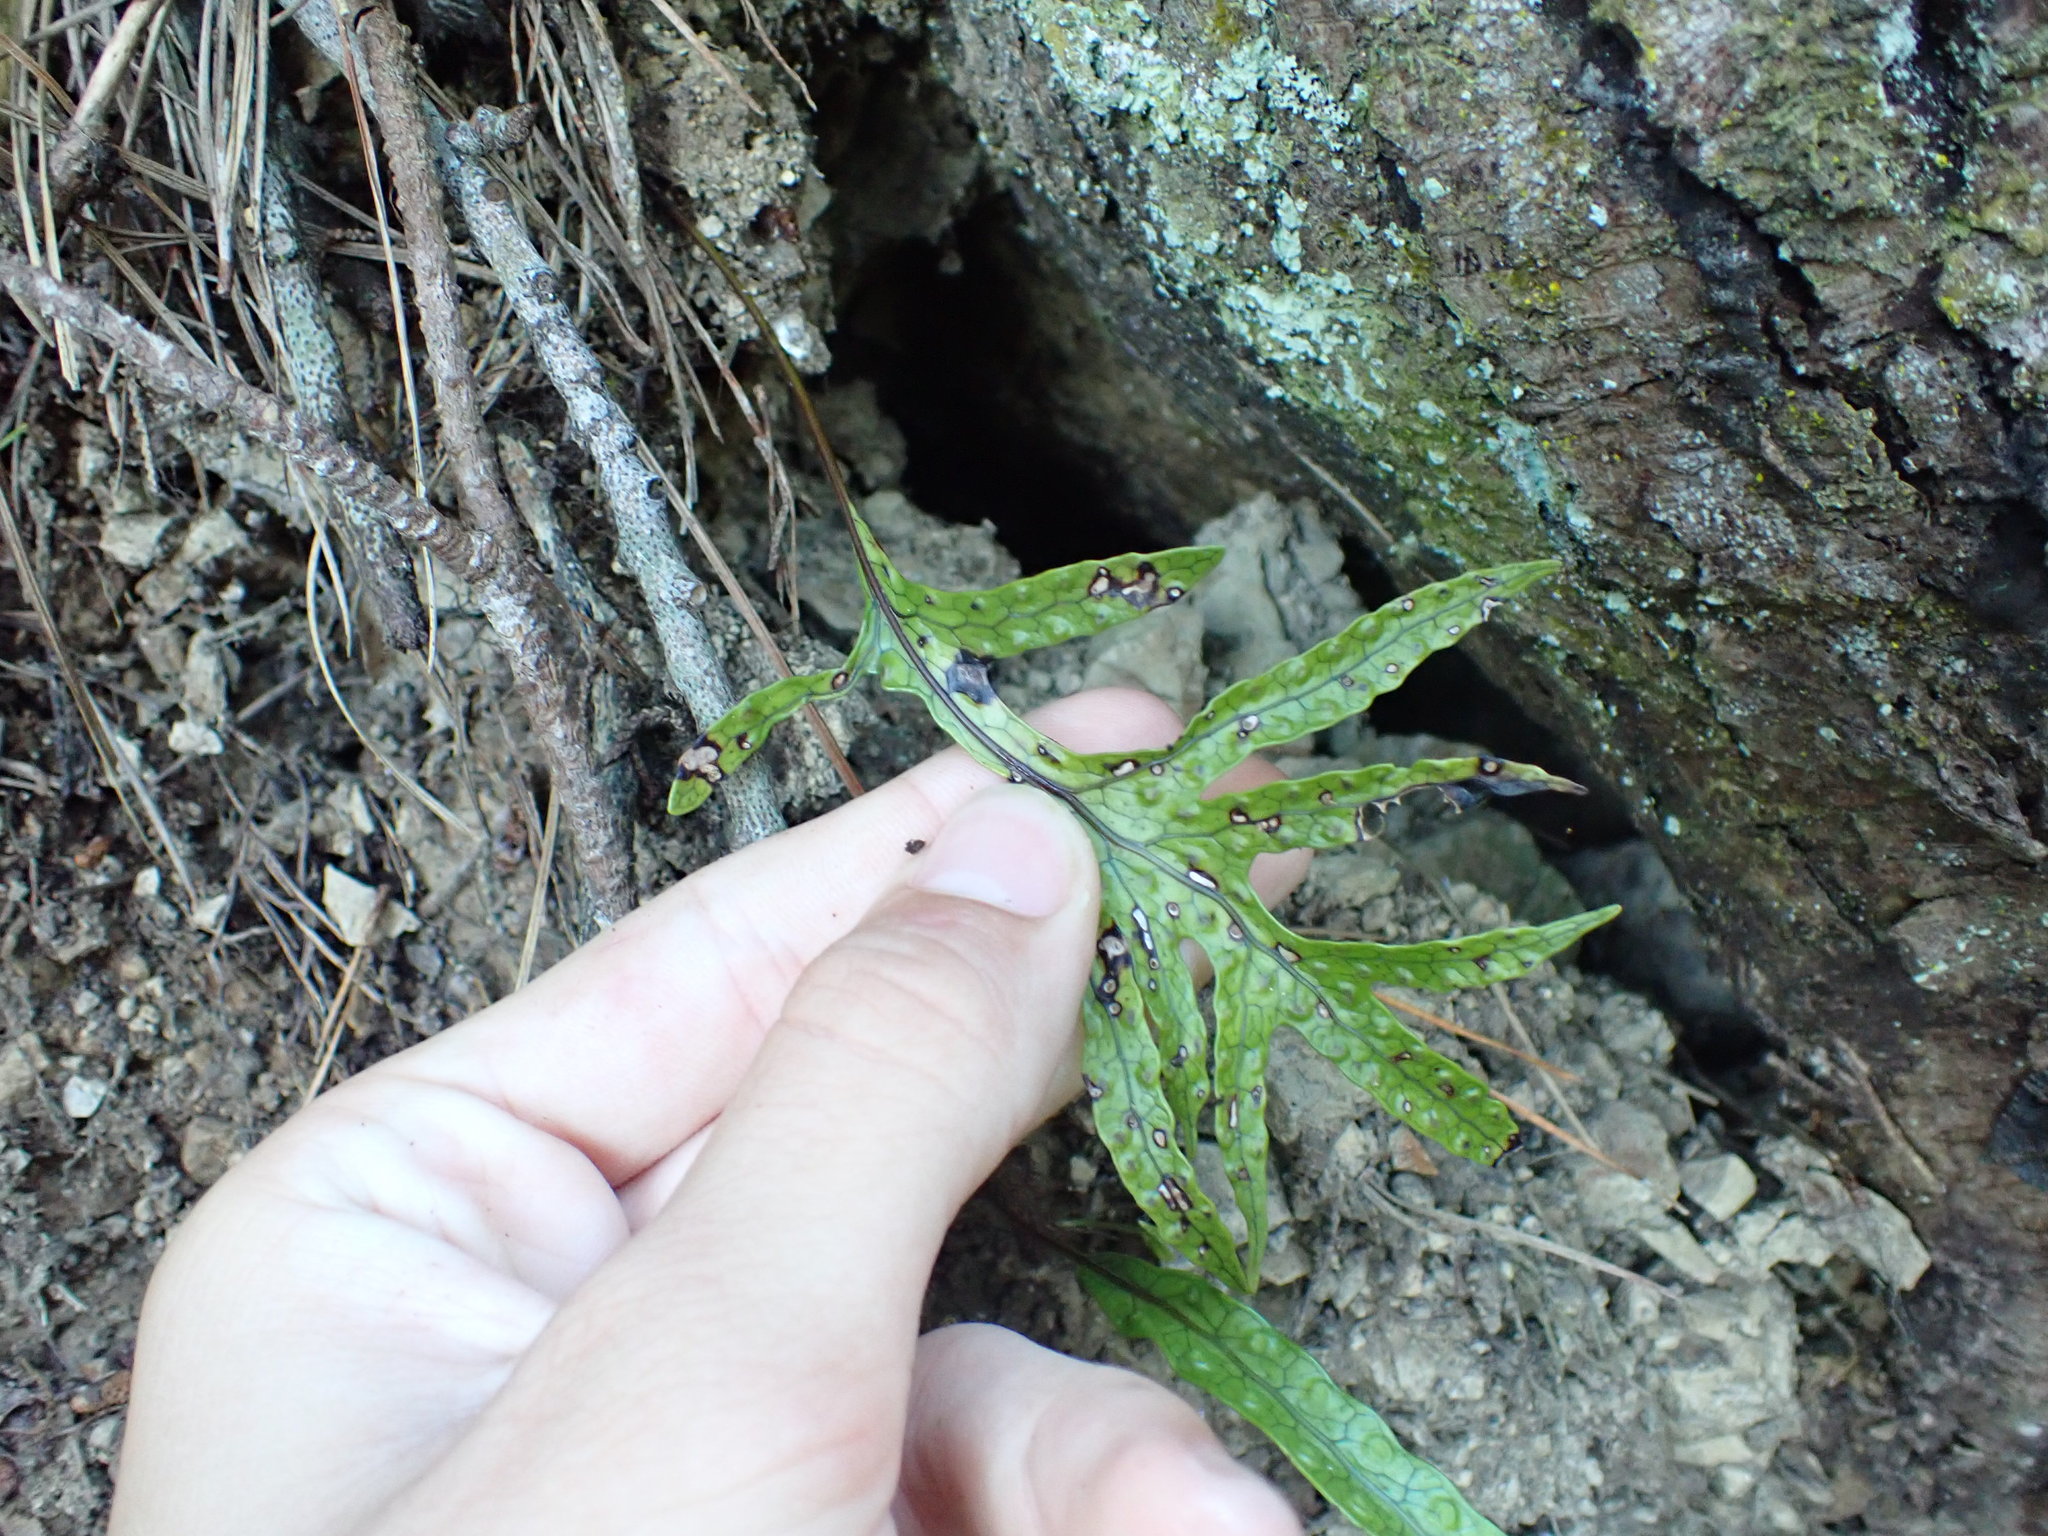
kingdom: Plantae
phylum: Tracheophyta
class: Polypodiopsida
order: Polypodiales
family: Polypodiaceae
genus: Lecanopteris
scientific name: Lecanopteris pustulata
